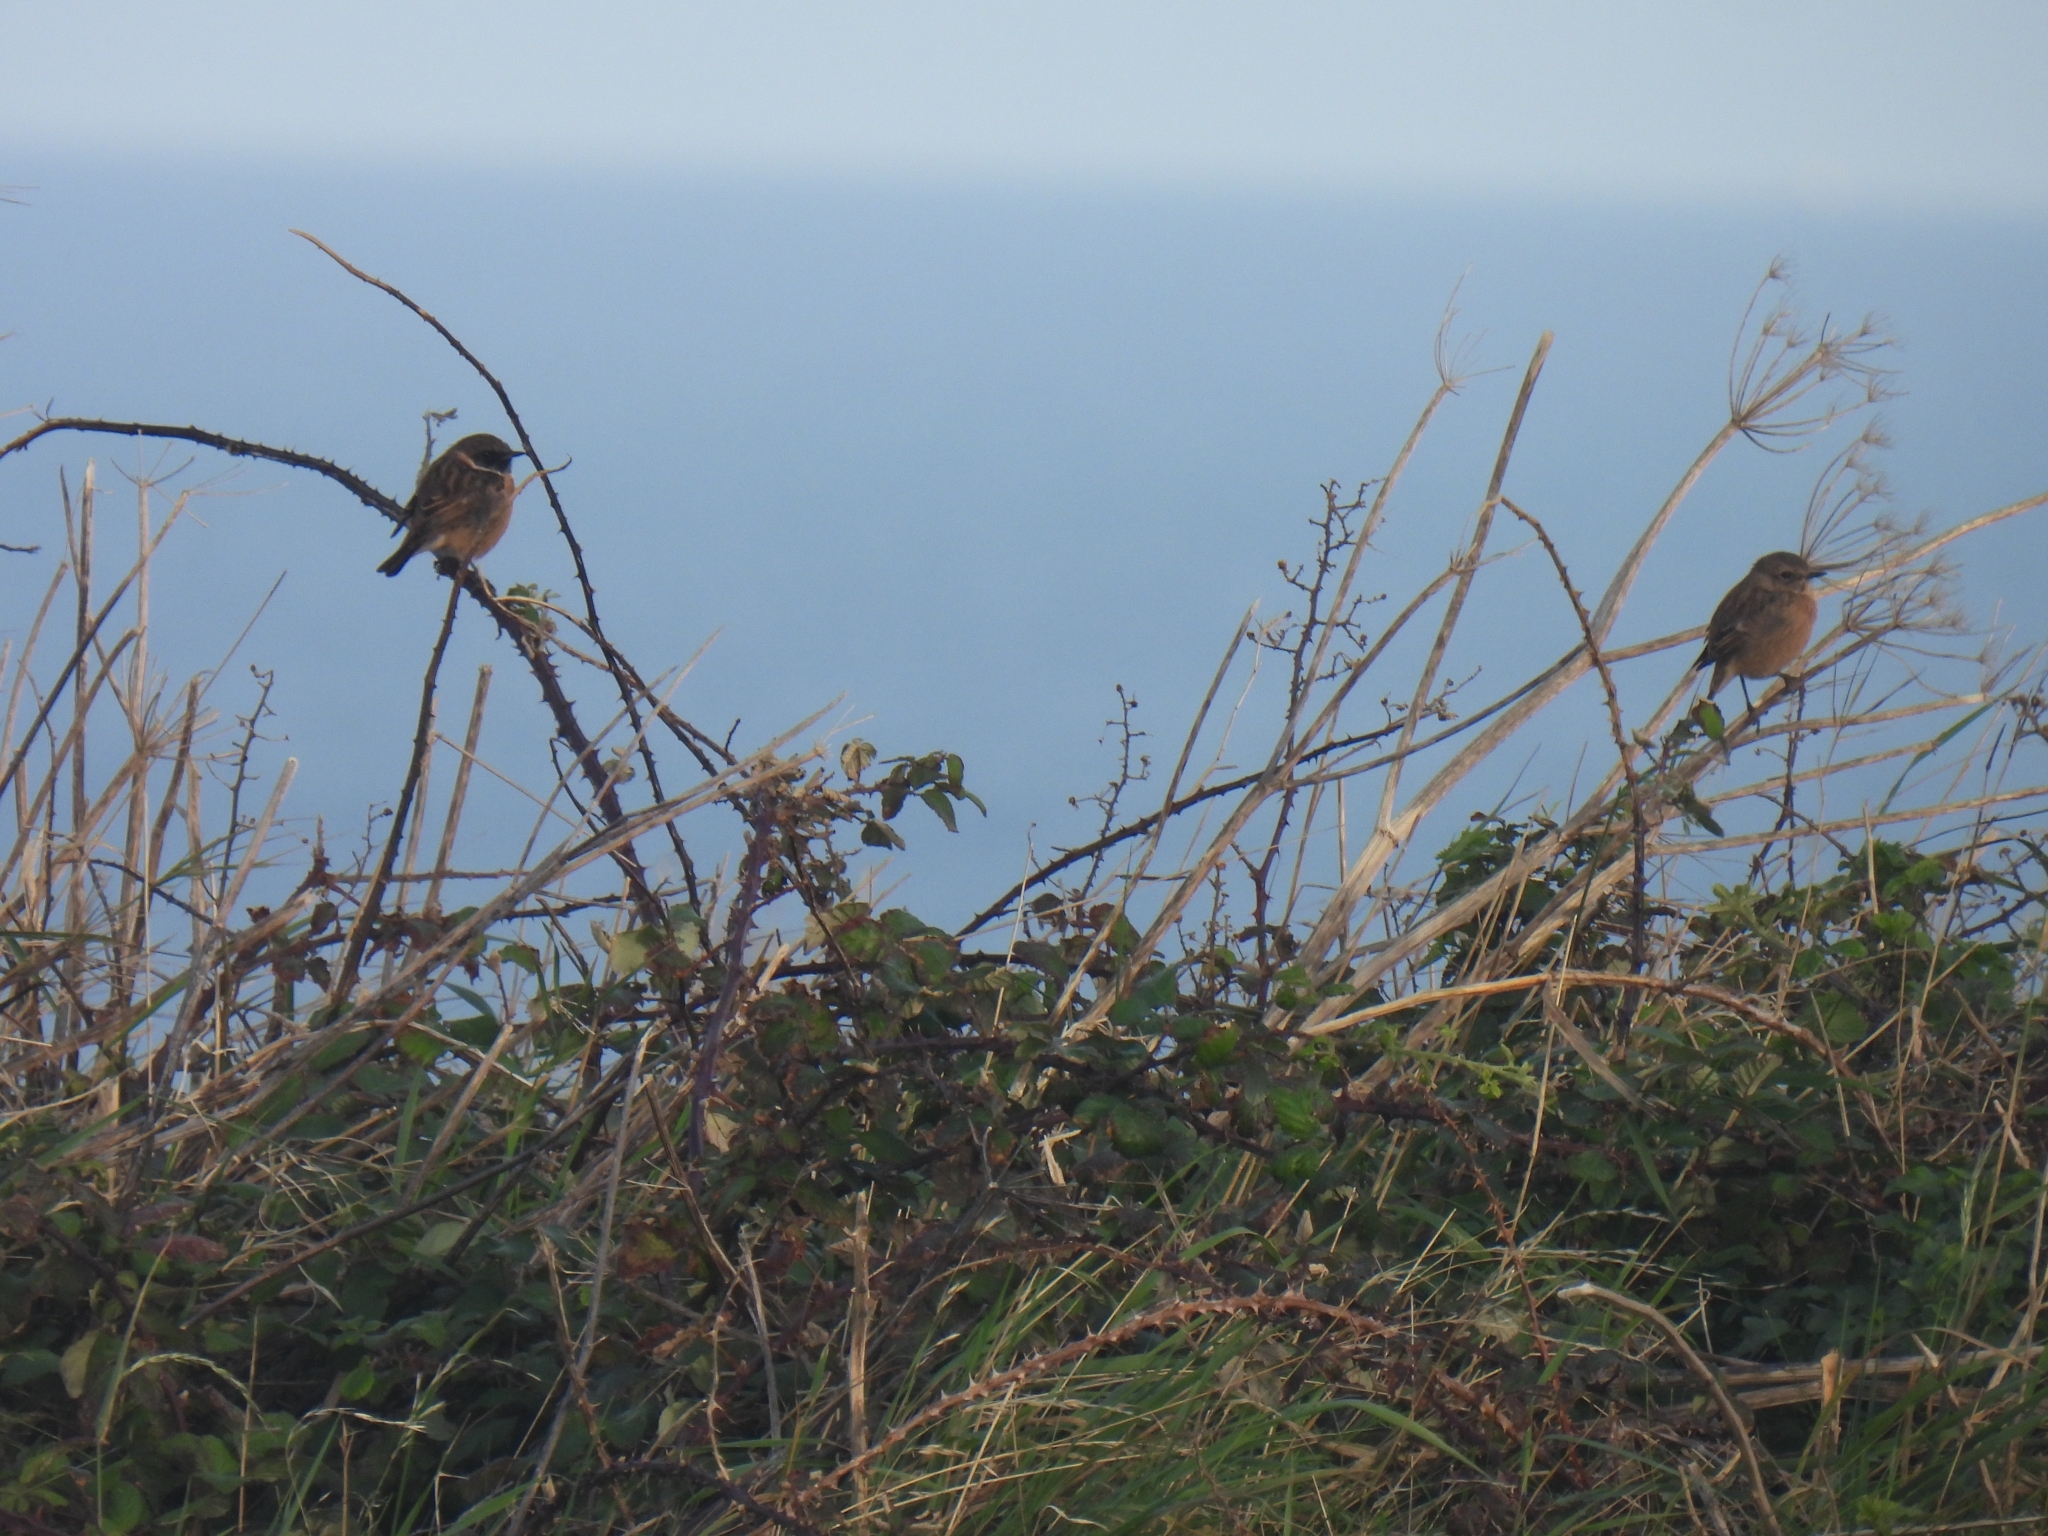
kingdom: Animalia
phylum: Chordata
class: Aves
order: Passeriformes
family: Muscicapidae
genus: Saxicola
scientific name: Saxicola rubicola
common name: European stonechat
